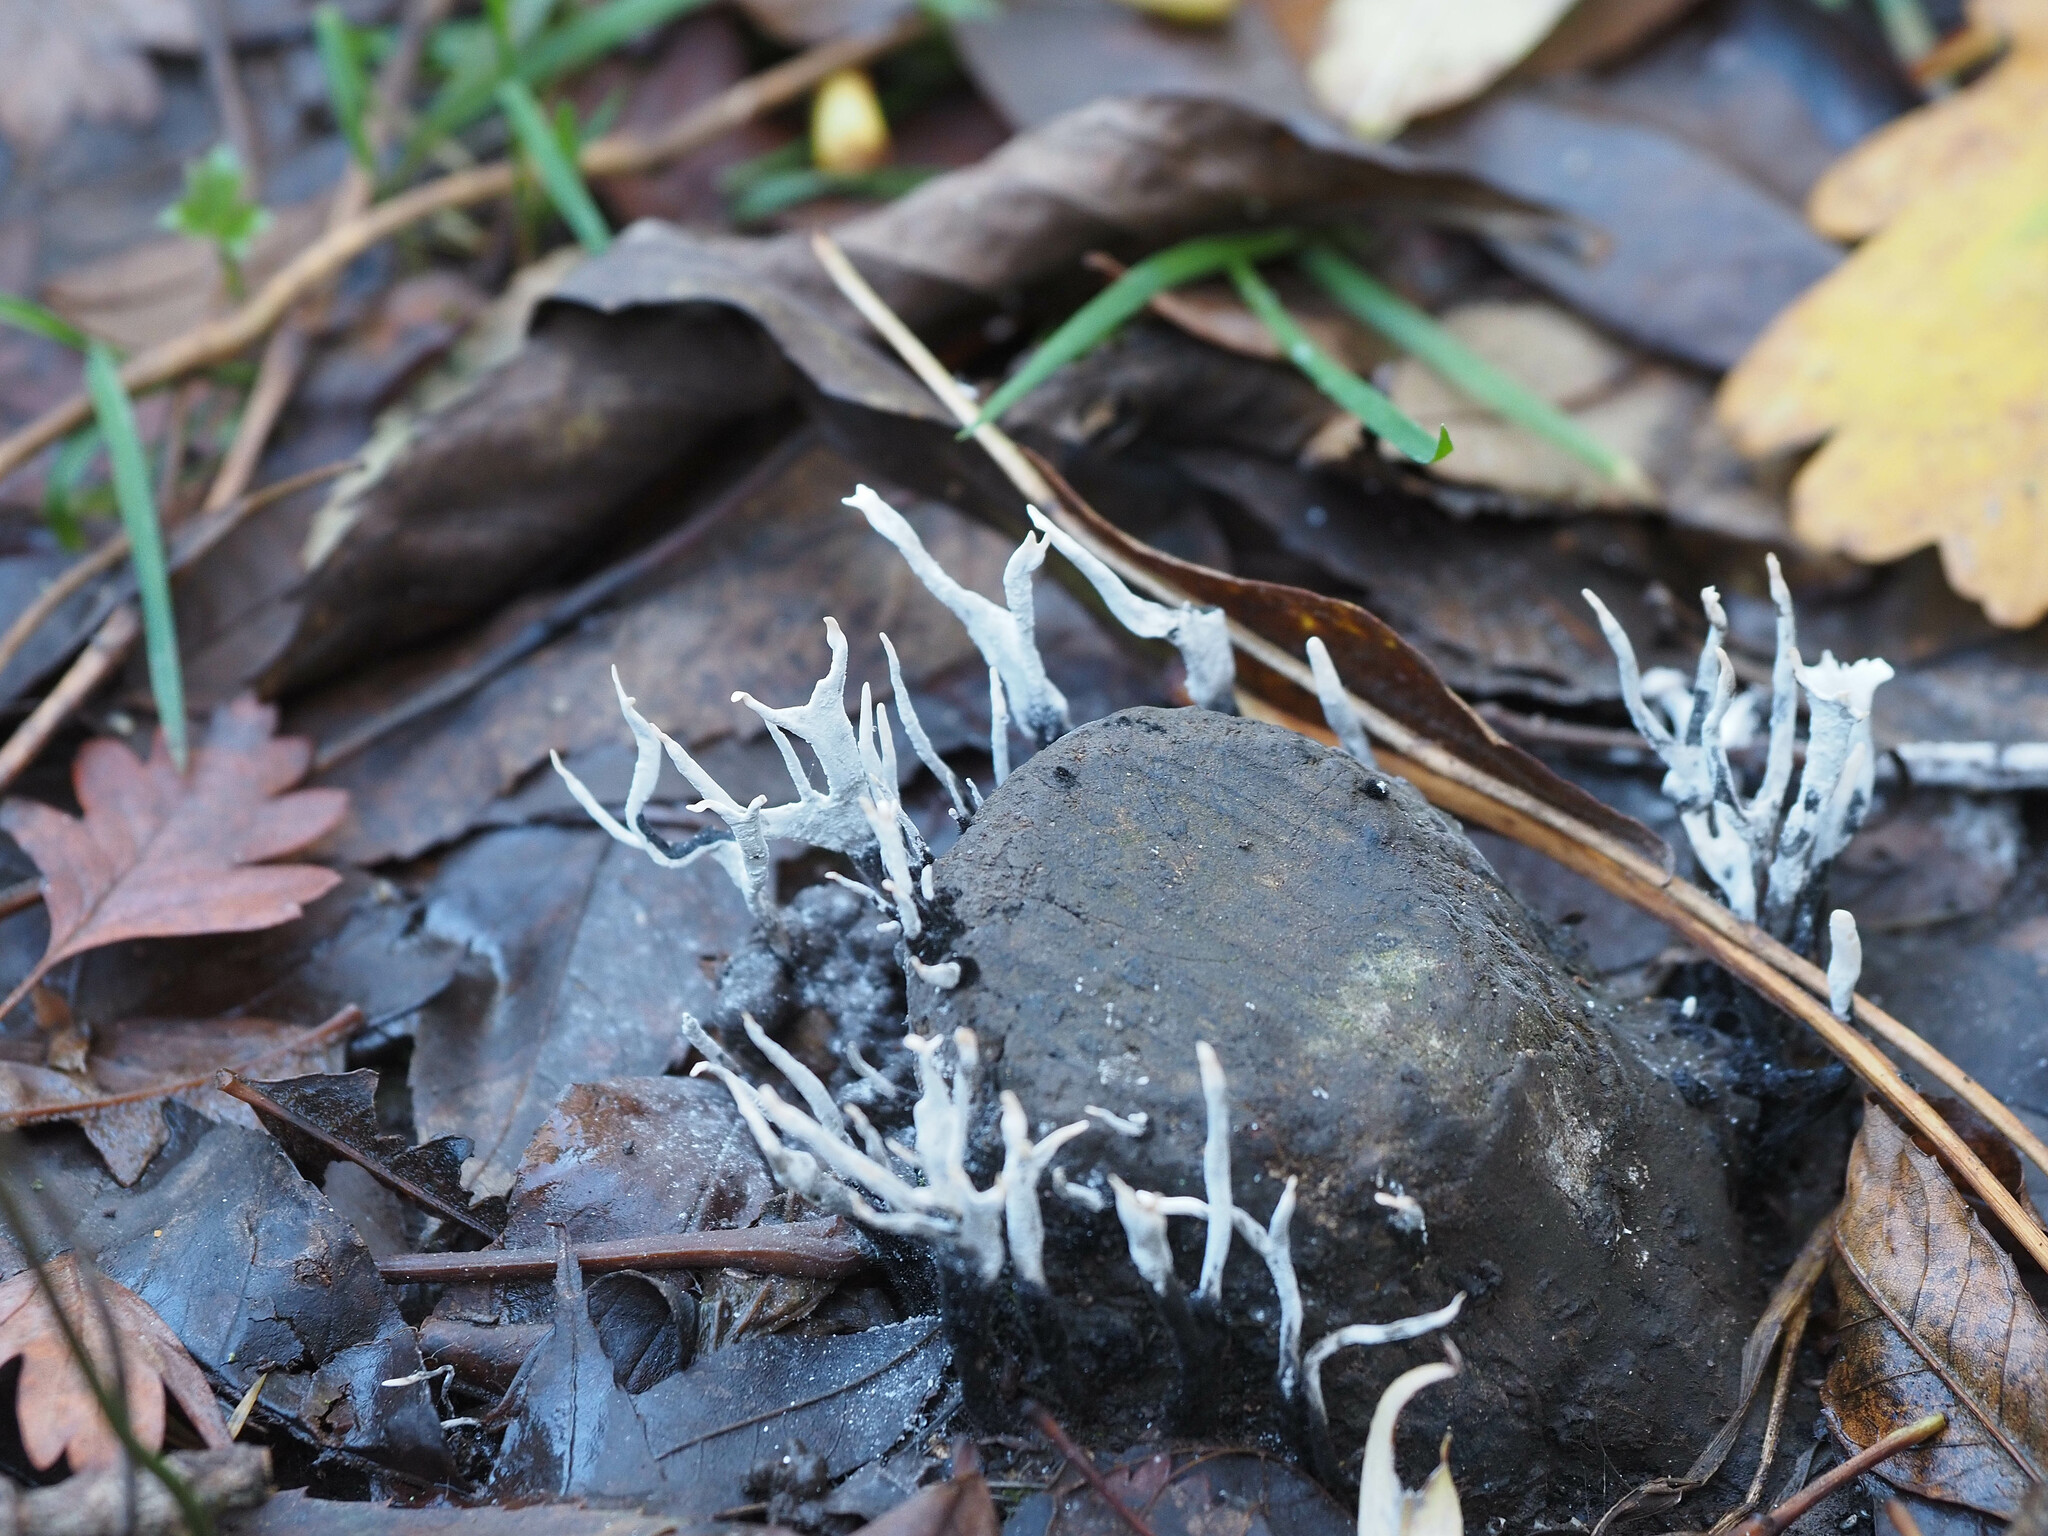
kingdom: Fungi
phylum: Ascomycota
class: Sordariomycetes
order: Xylariales
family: Xylariaceae
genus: Xylaria
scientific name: Xylaria hypoxylon
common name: Candle-snuff fungus
